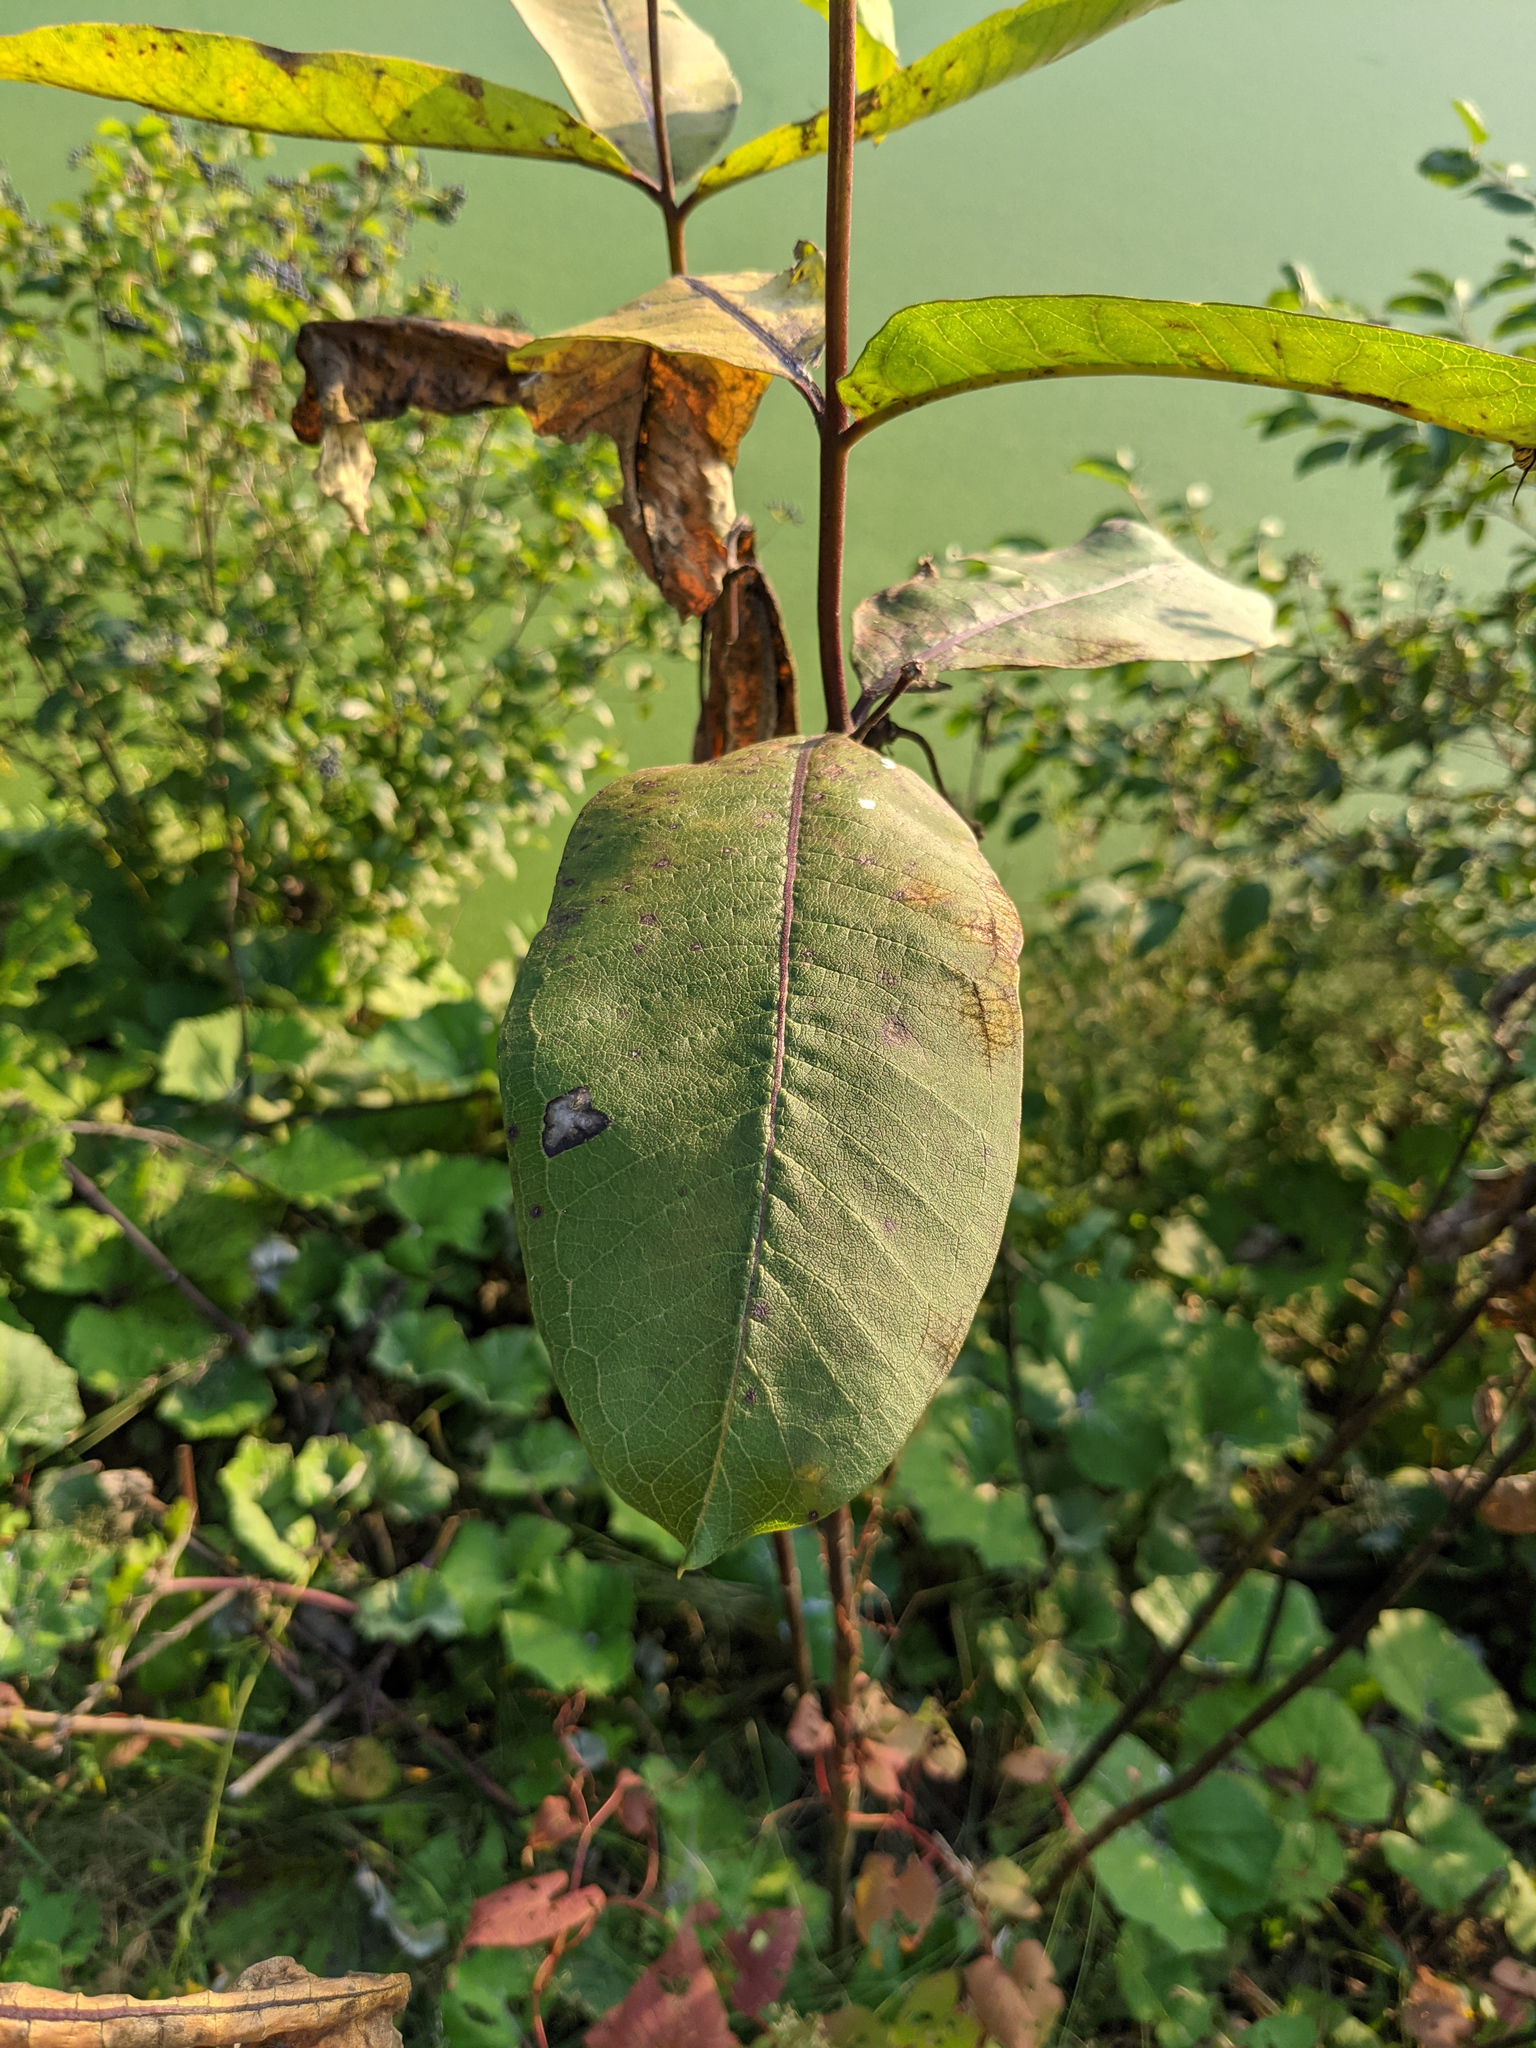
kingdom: Plantae
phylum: Tracheophyta
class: Magnoliopsida
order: Gentianales
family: Apocynaceae
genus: Asclepias
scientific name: Asclepias syriaca
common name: Common milkweed
